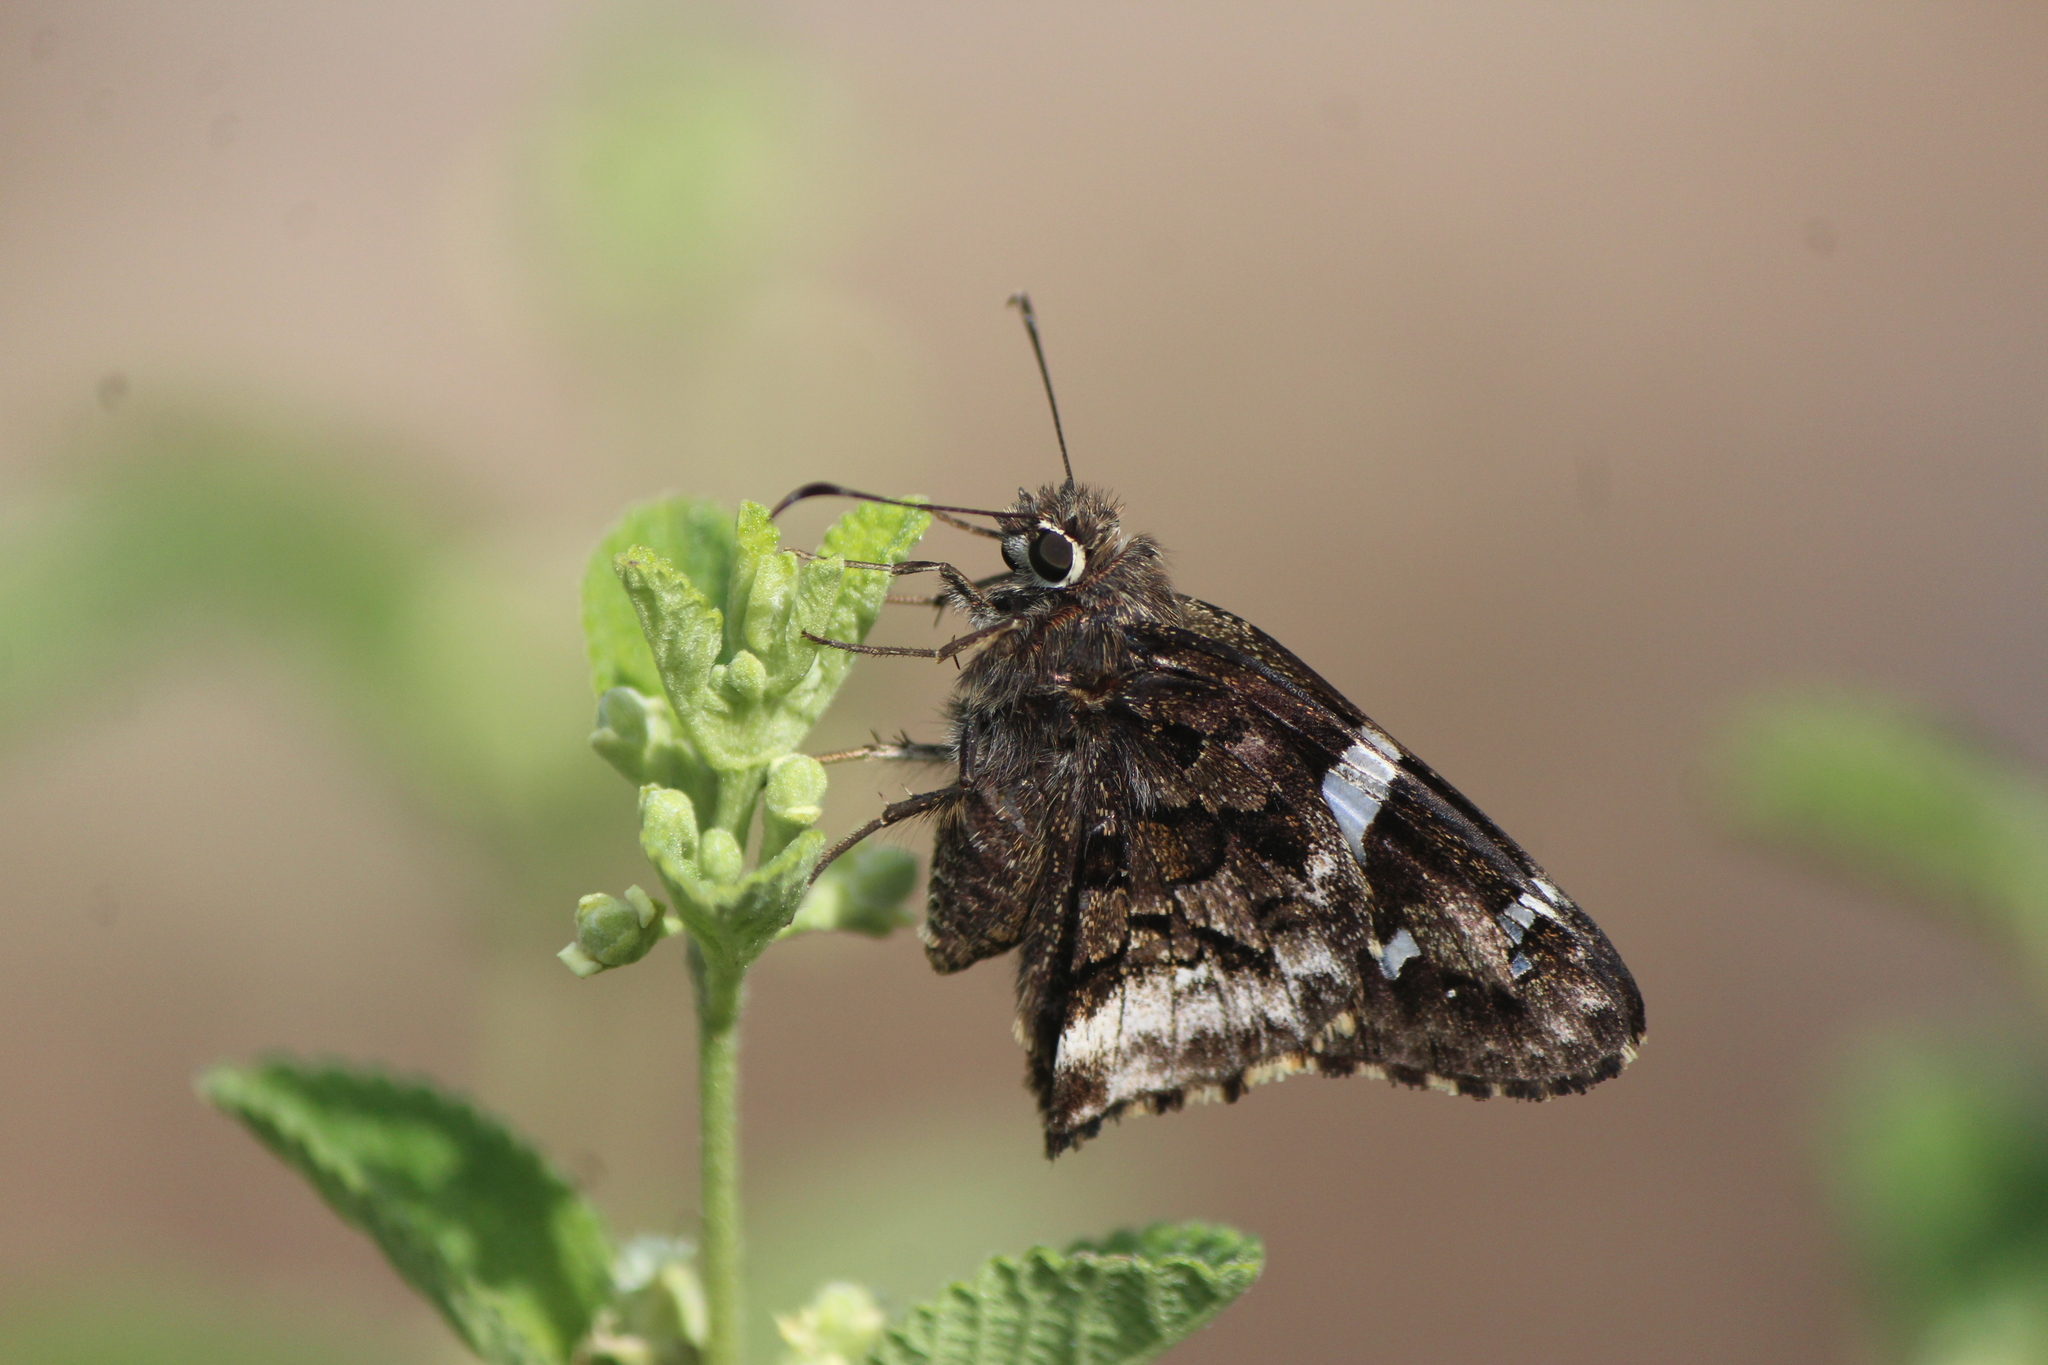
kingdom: Animalia
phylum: Arthropoda
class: Insecta
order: Lepidoptera
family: Hesperiidae
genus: Codatractus
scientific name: Codatractus arizonensis
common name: Arizona skipper
